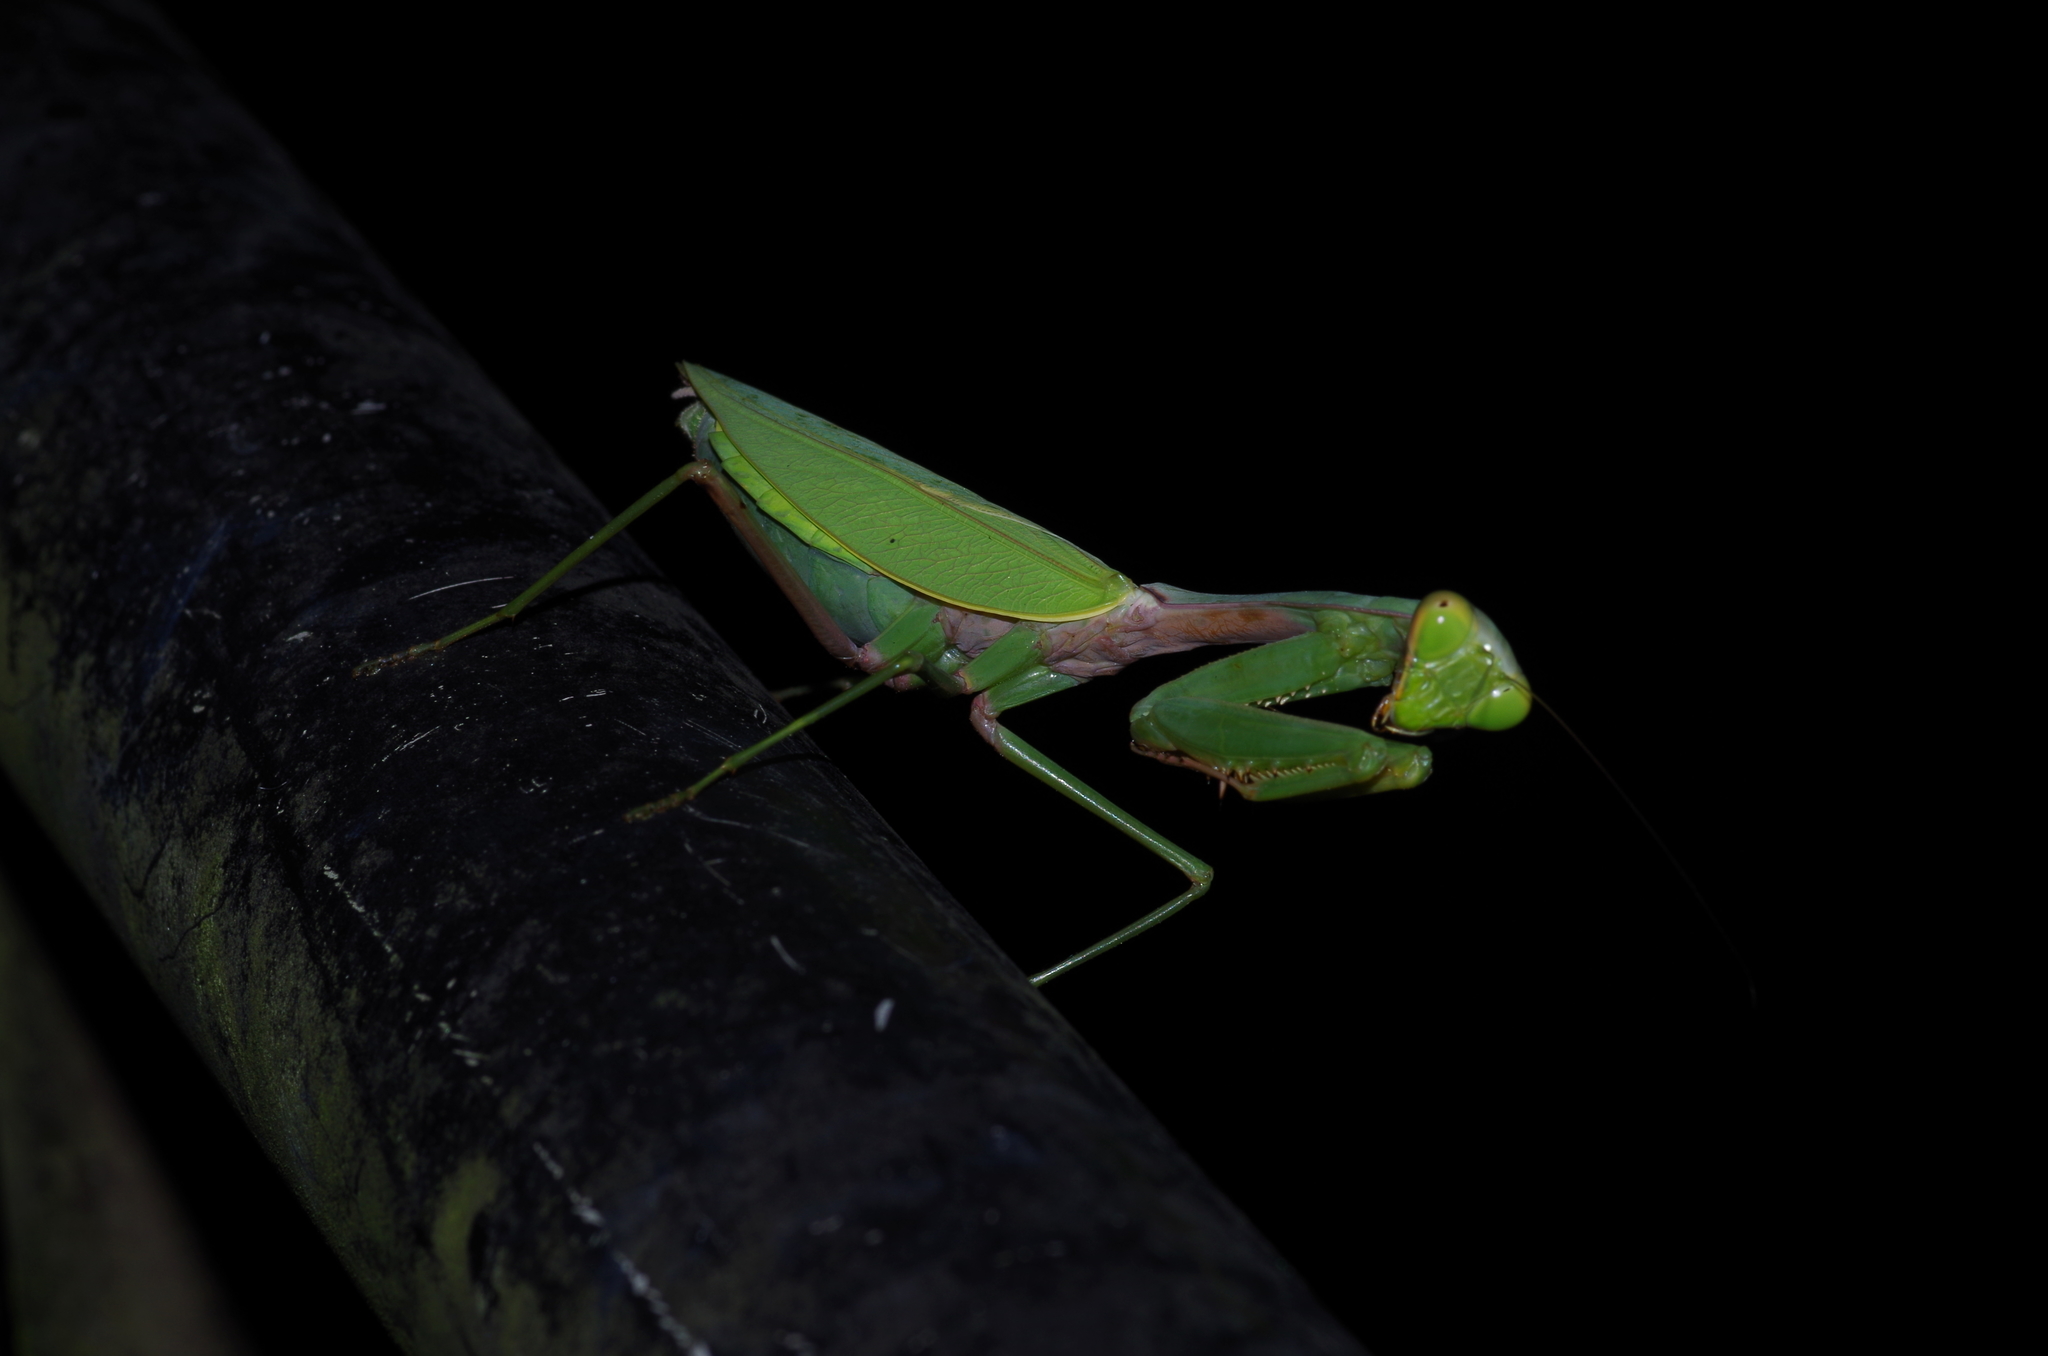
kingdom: Animalia
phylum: Arthropoda
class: Insecta
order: Mantodea
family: Mantidae
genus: Hierodula
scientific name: Hierodula chinensis
